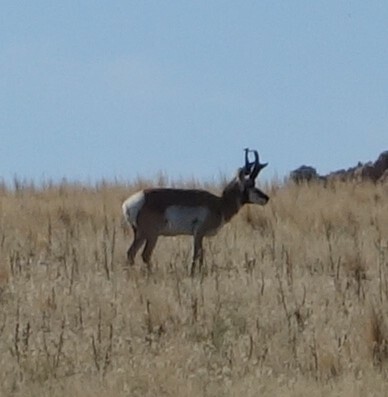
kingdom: Animalia
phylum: Chordata
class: Mammalia
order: Artiodactyla
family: Antilocapridae
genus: Antilocapra
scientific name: Antilocapra americana
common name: Pronghorn
